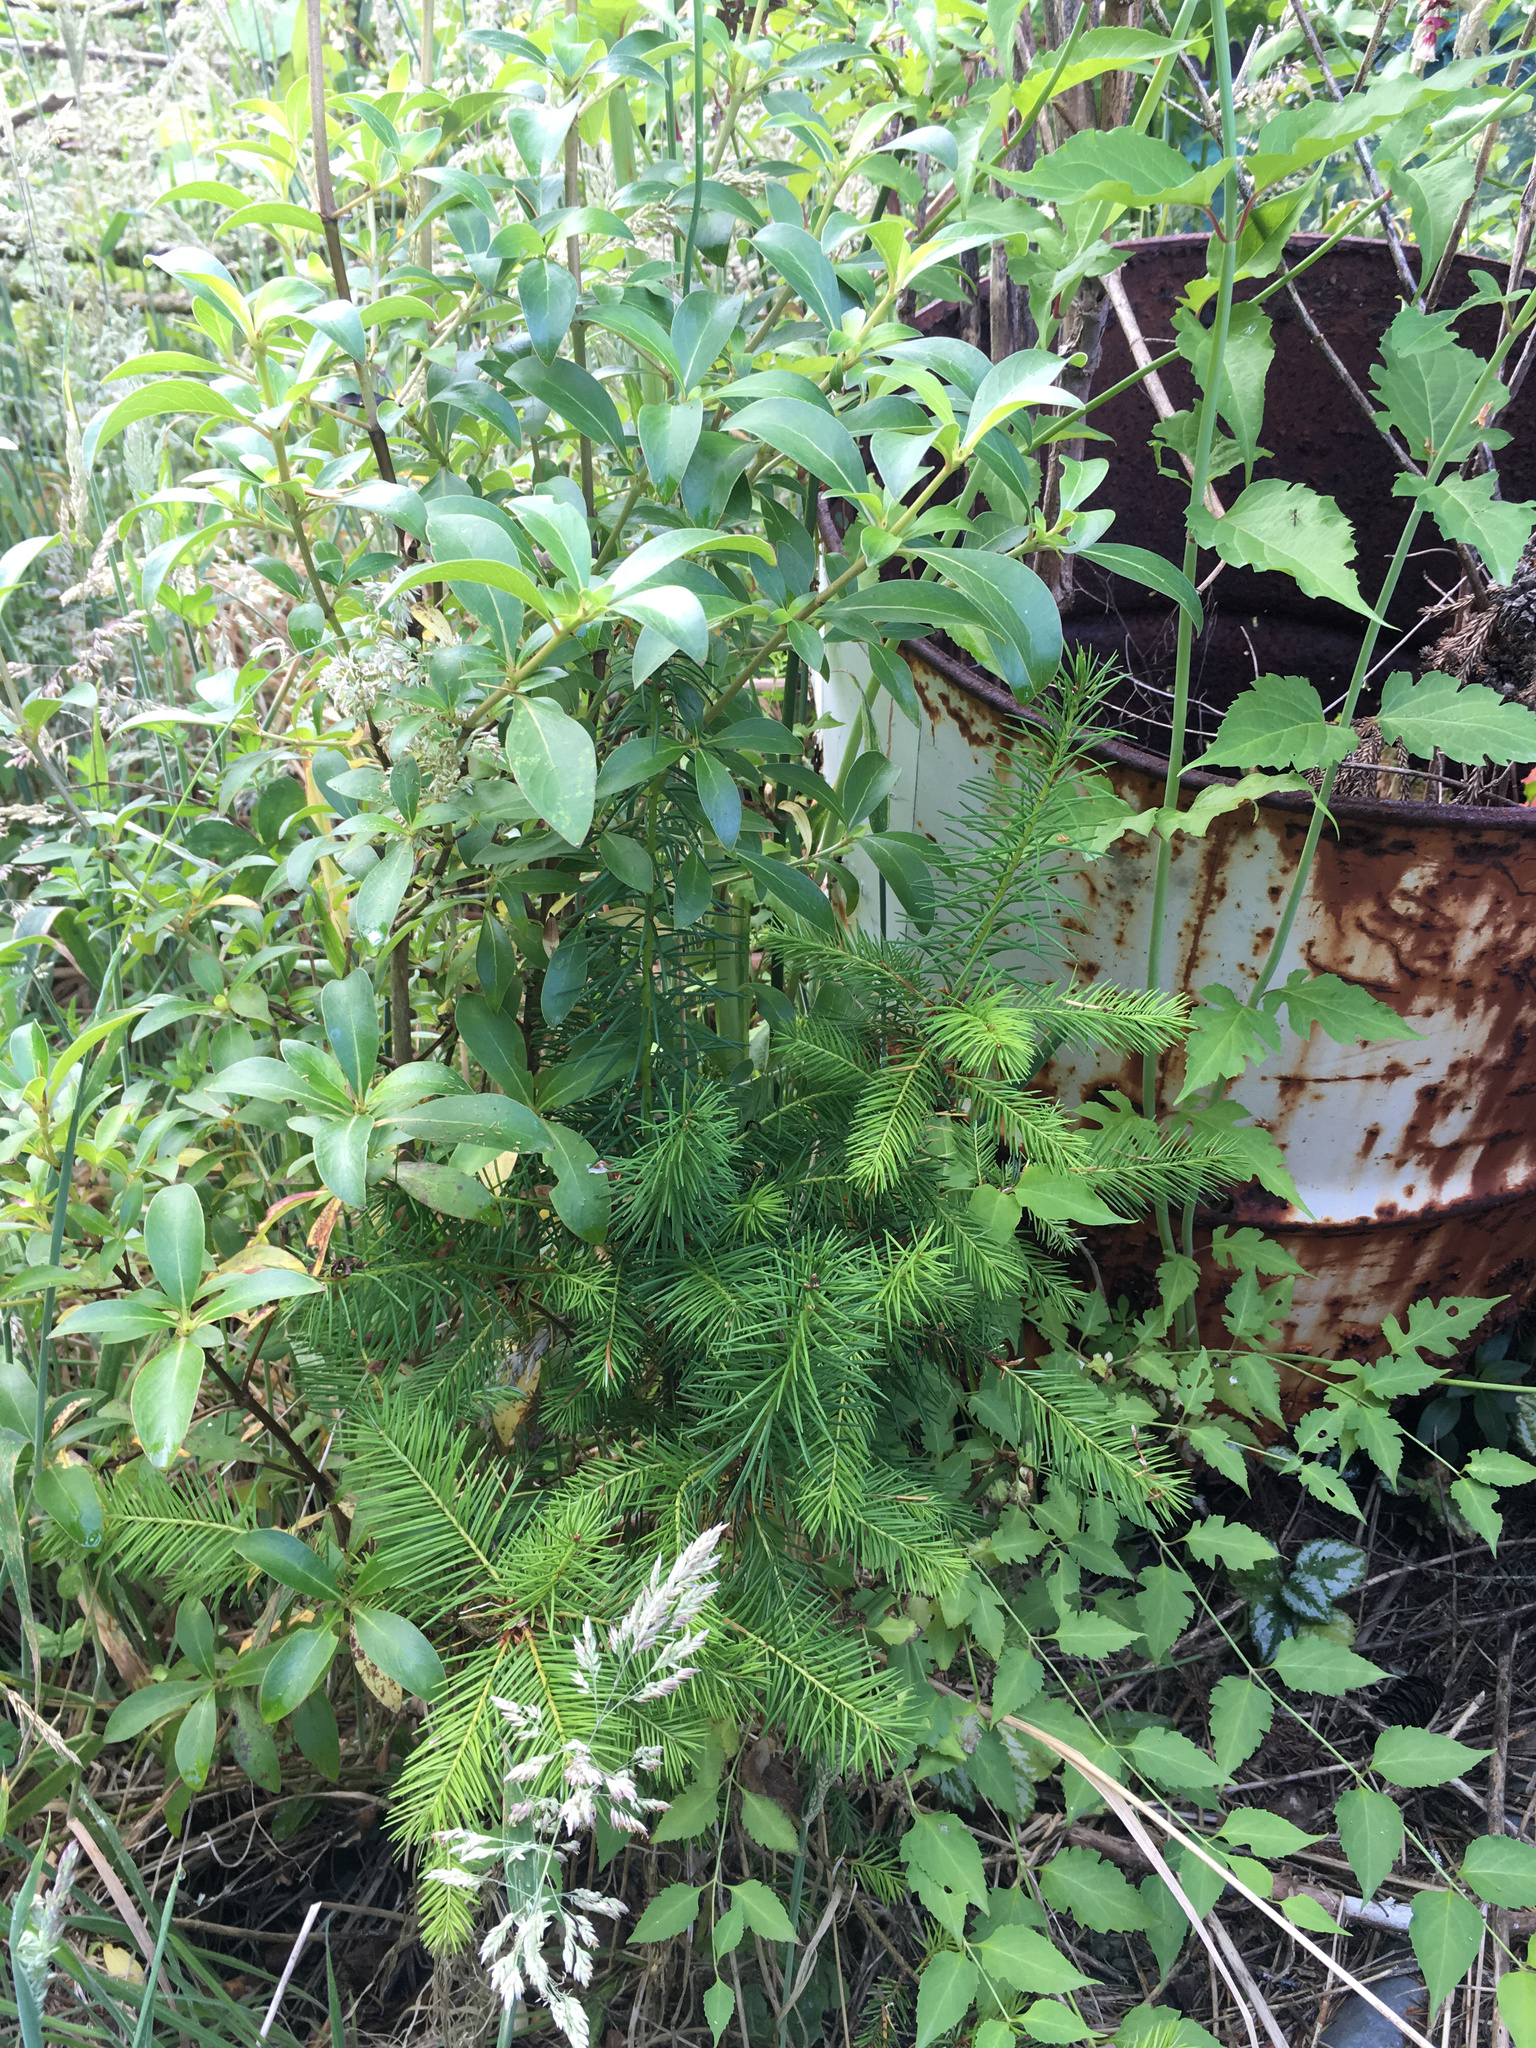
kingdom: Plantae
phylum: Tracheophyta
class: Pinopsida
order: Pinales
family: Pinaceae
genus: Pseudotsuga
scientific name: Pseudotsuga menziesii
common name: Douglas fir
